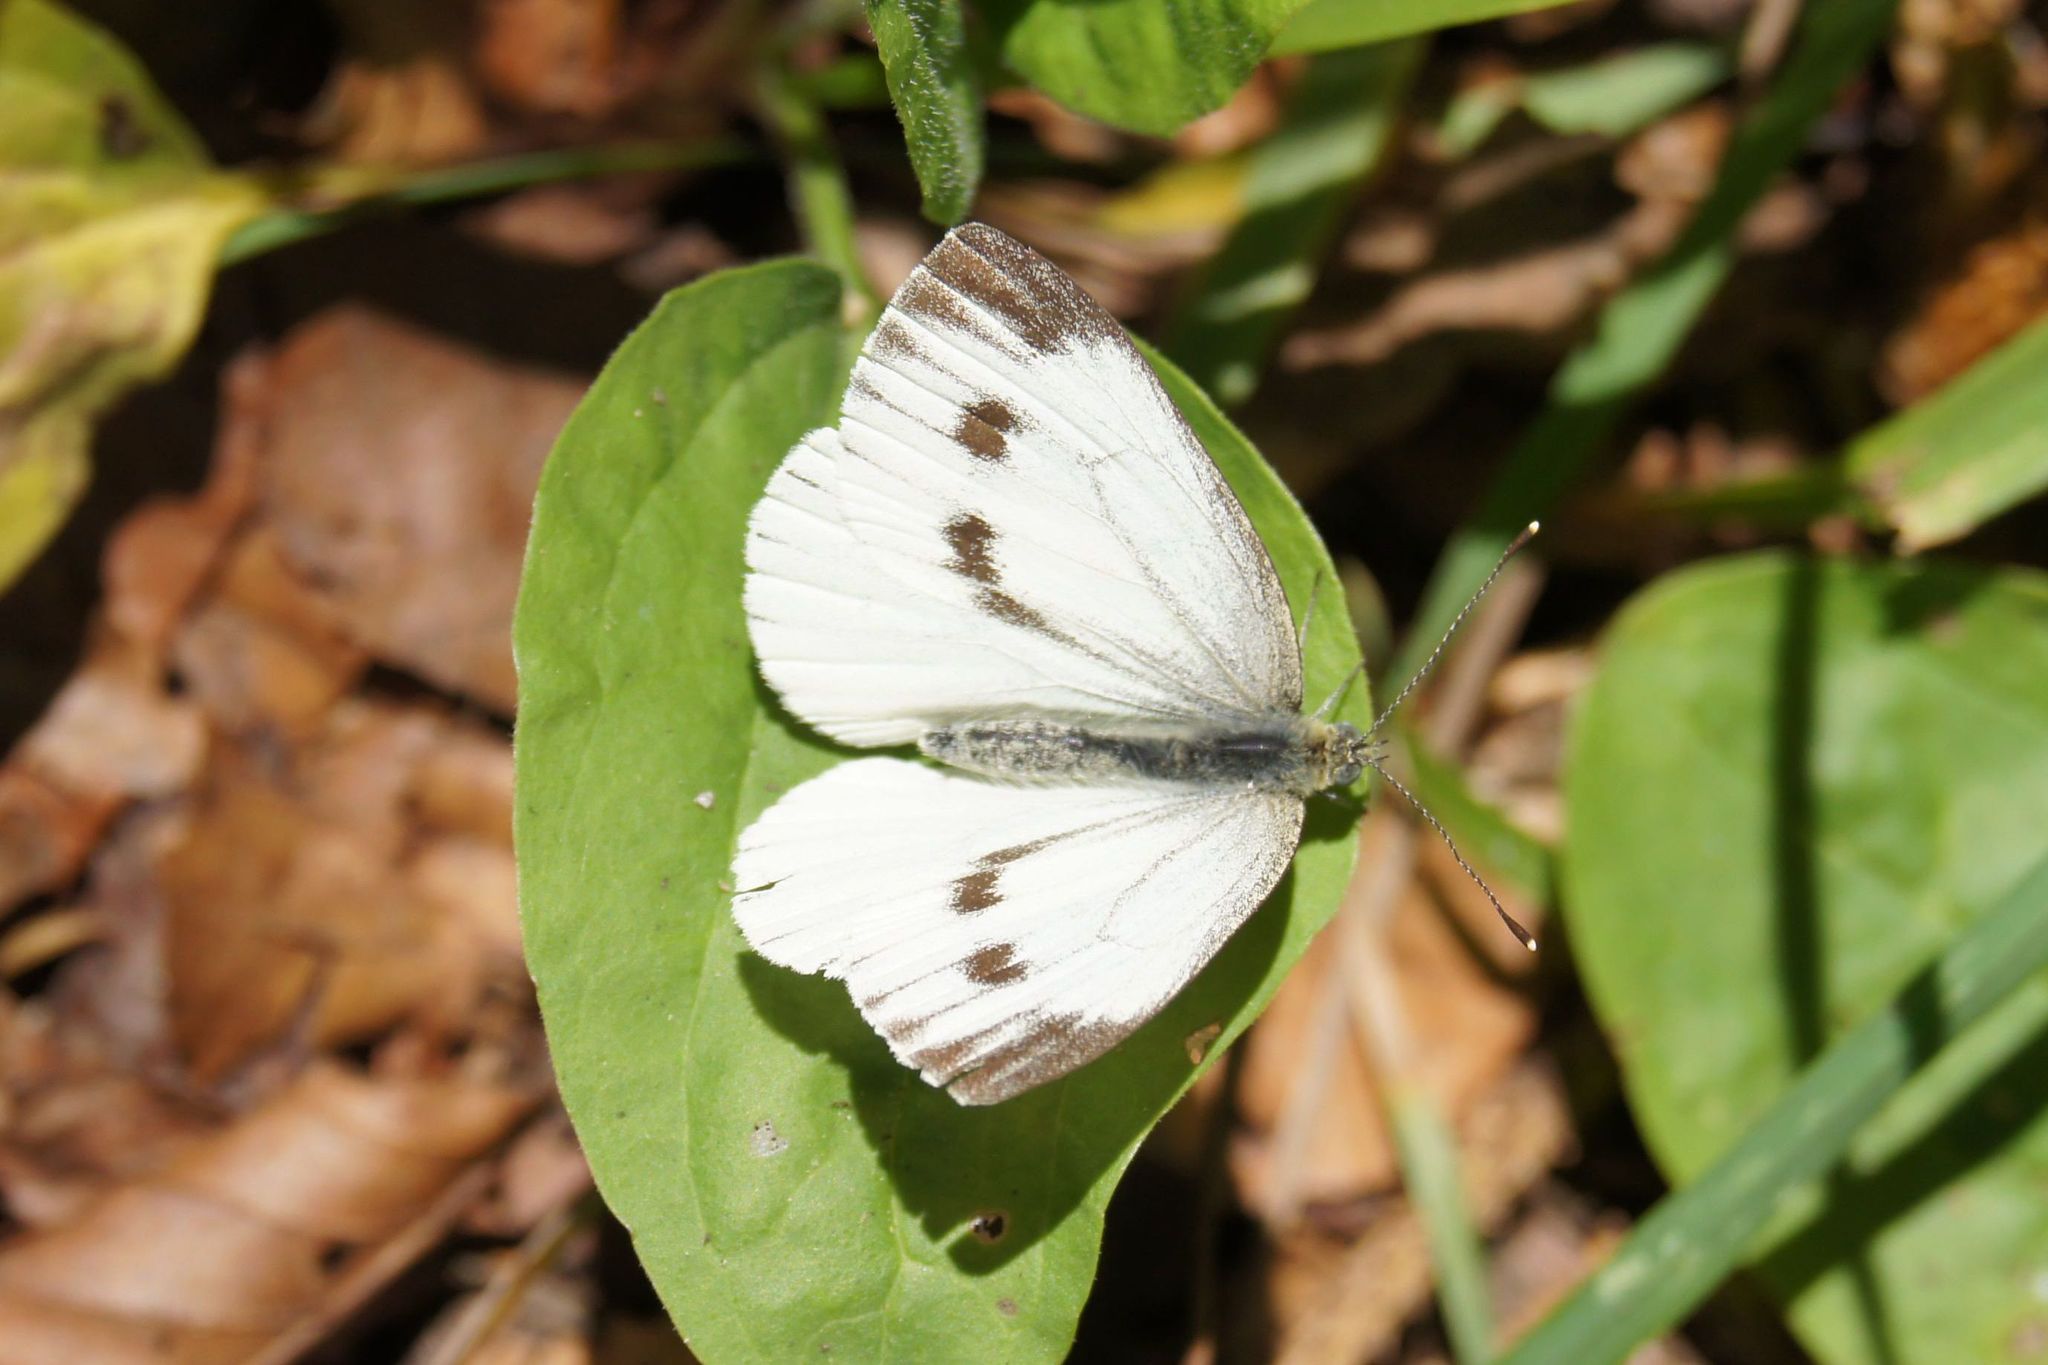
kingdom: Animalia
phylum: Arthropoda
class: Insecta
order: Lepidoptera
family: Pieridae
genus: Pieris
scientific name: Pieris napi
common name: Green-veined white
